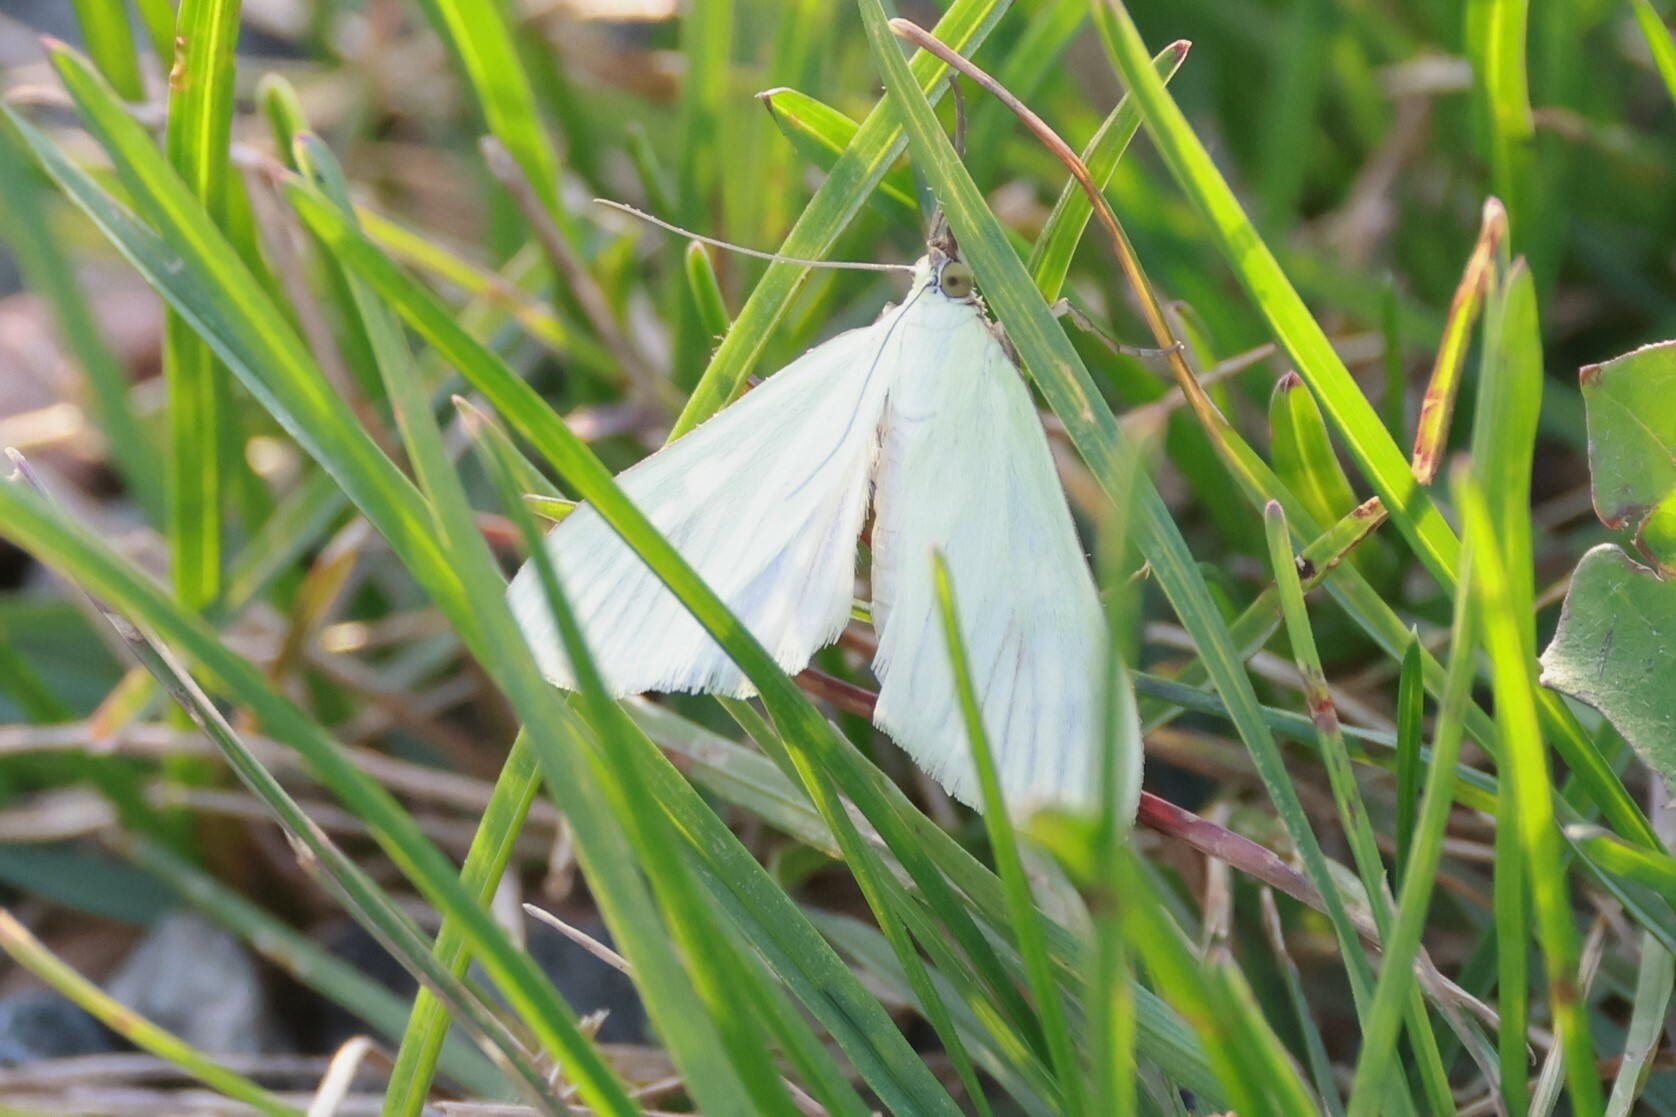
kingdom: Animalia
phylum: Arthropoda
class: Insecta
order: Lepidoptera
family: Crambidae
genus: Sitochroa
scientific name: Sitochroa palealis
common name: Greenish-yellow sitochroa moth
